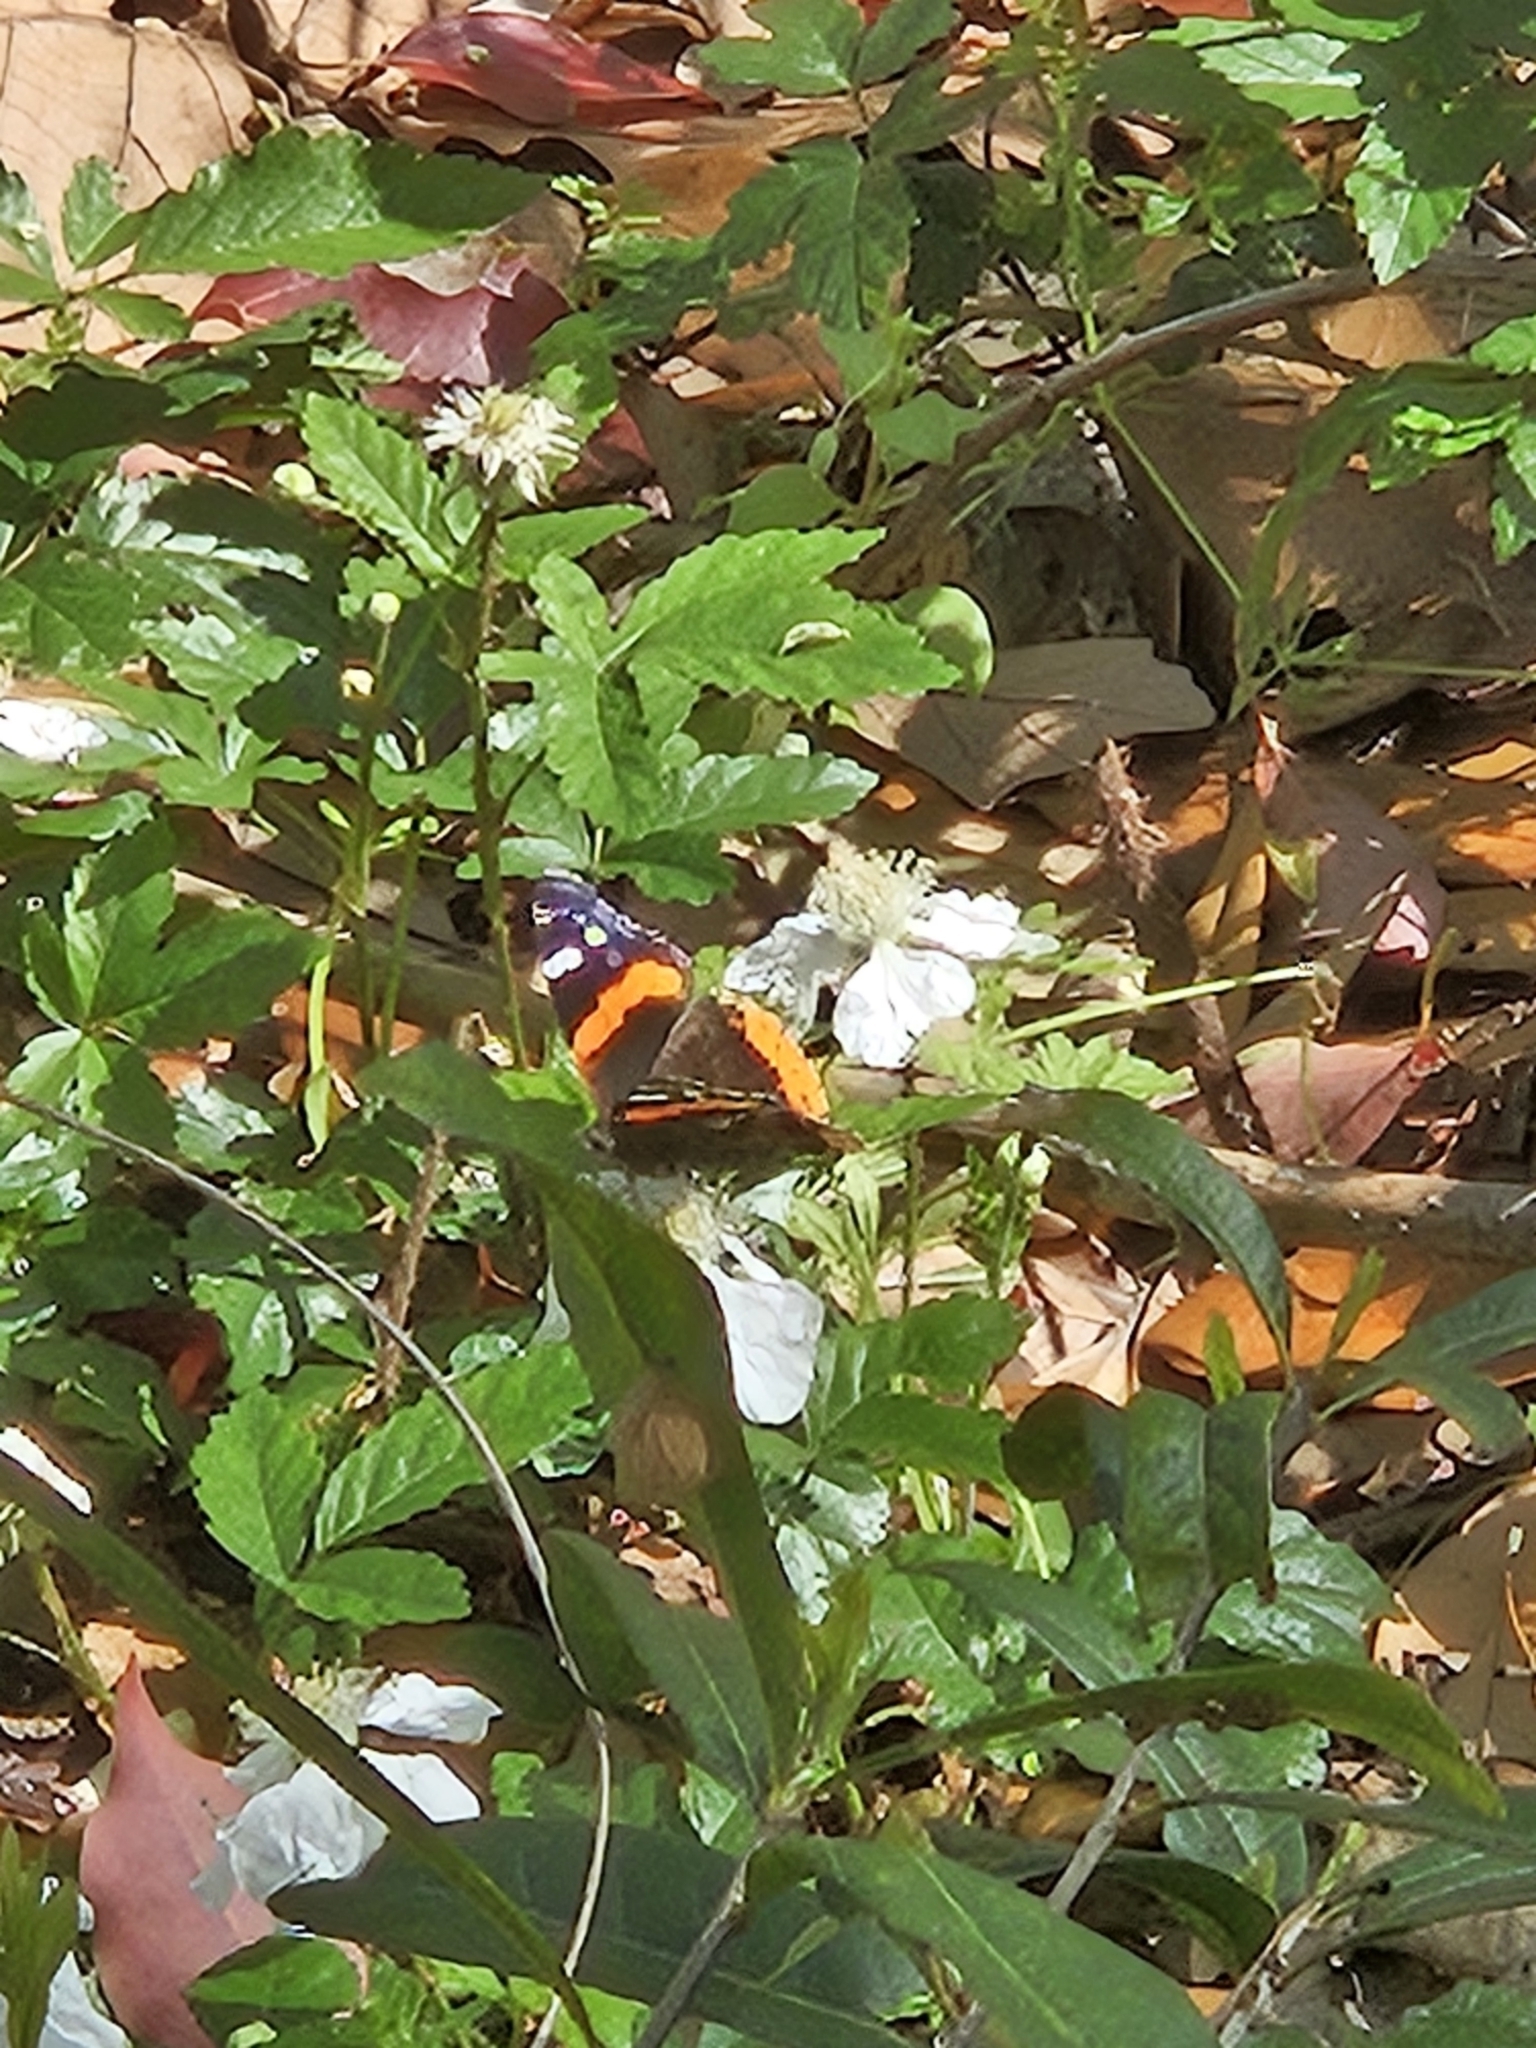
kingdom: Animalia
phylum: Arthropoda
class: Insecta
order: Lepidoptera
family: Nymphalidae
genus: Vanessa
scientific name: Vanessa atalanta
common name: Red admiral
